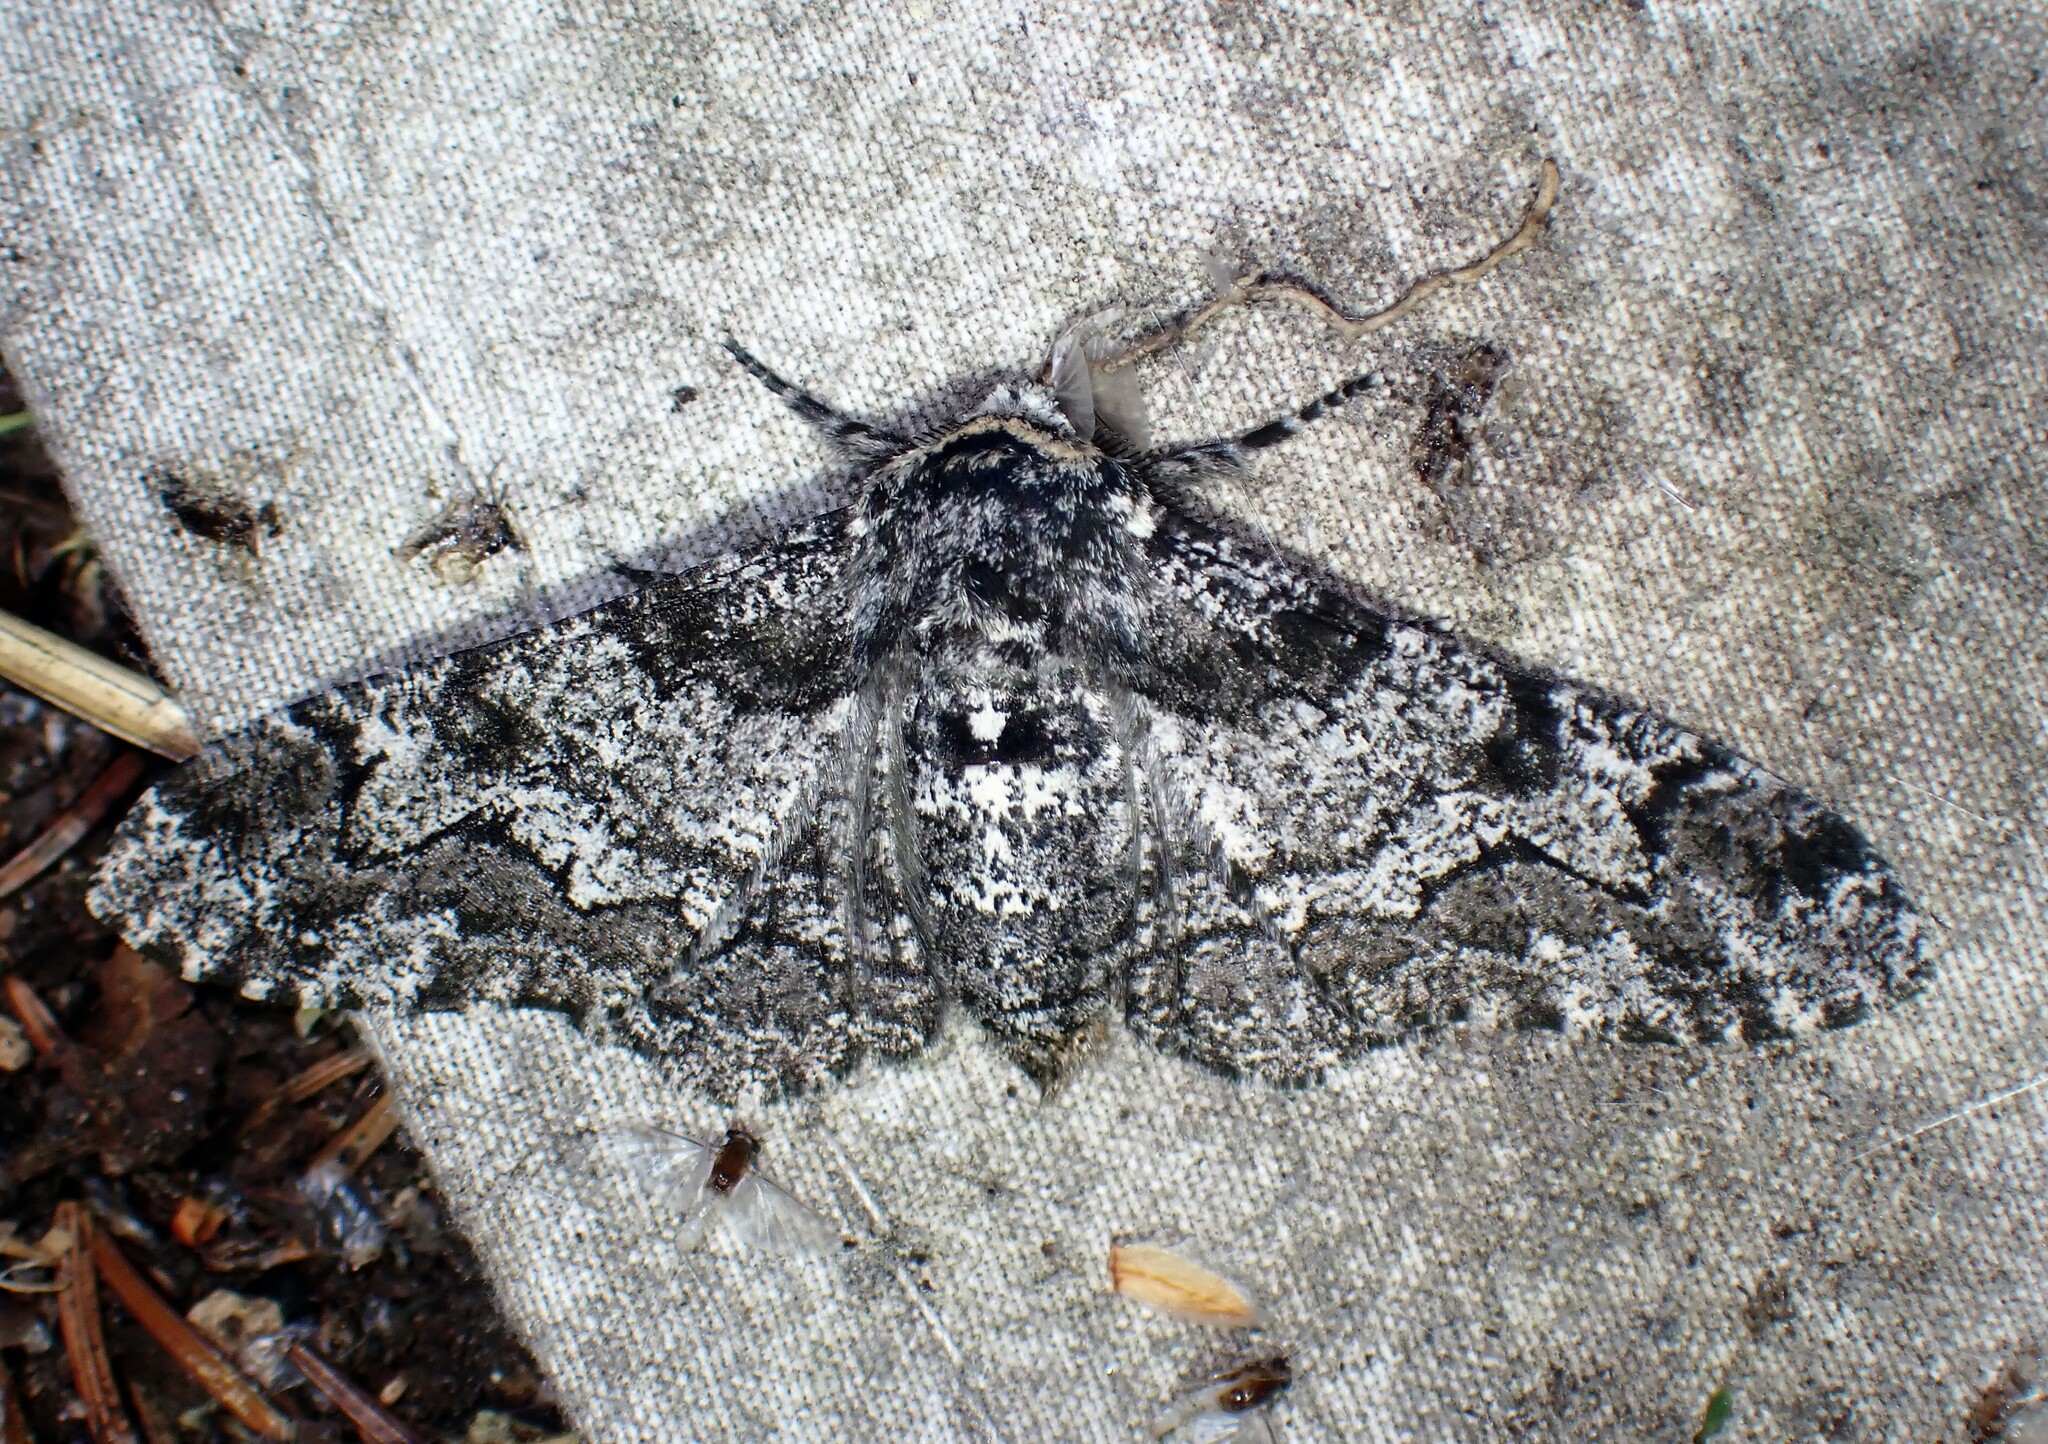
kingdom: Animalia
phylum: Arthropoda
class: Insecta
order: Lepidoptera
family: Geometridae
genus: Biston
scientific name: Biston betularia
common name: Peppered moth
